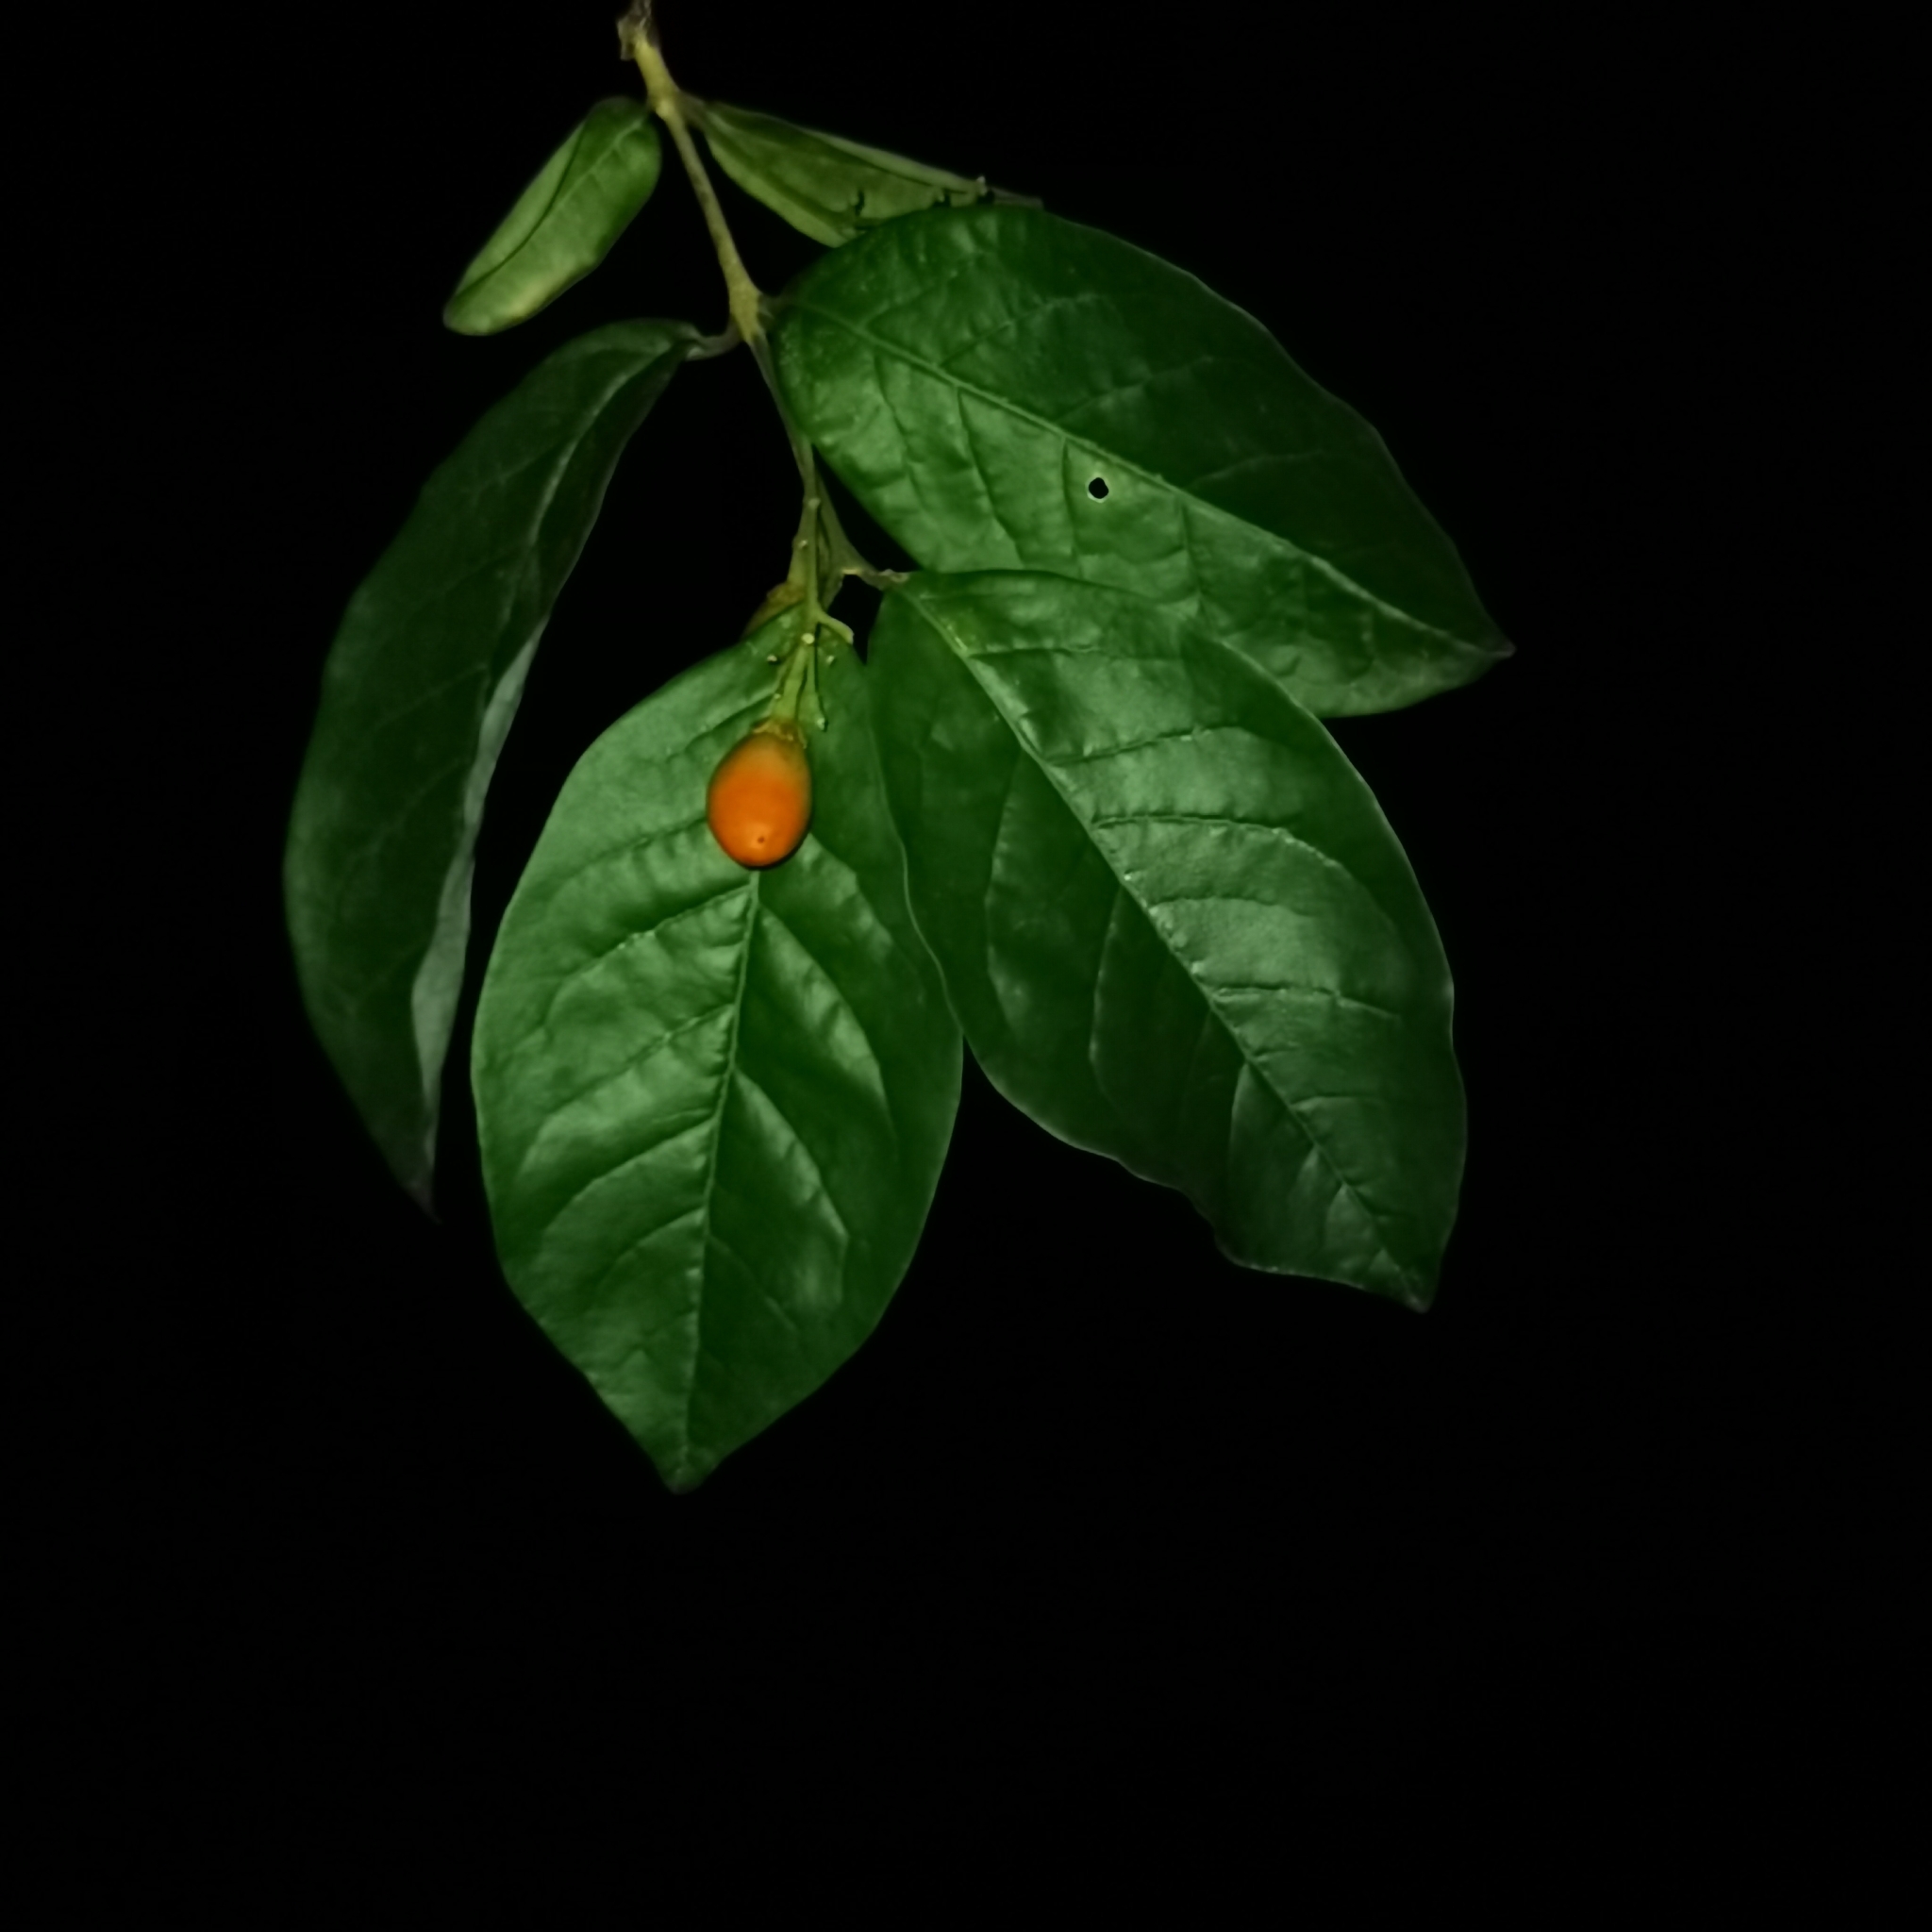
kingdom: Plantae
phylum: Tracheophyta
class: Magnoliopsida
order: Malpighiales
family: Malpighiaceae
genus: Bunchosia
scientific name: Bunchosia nitida
